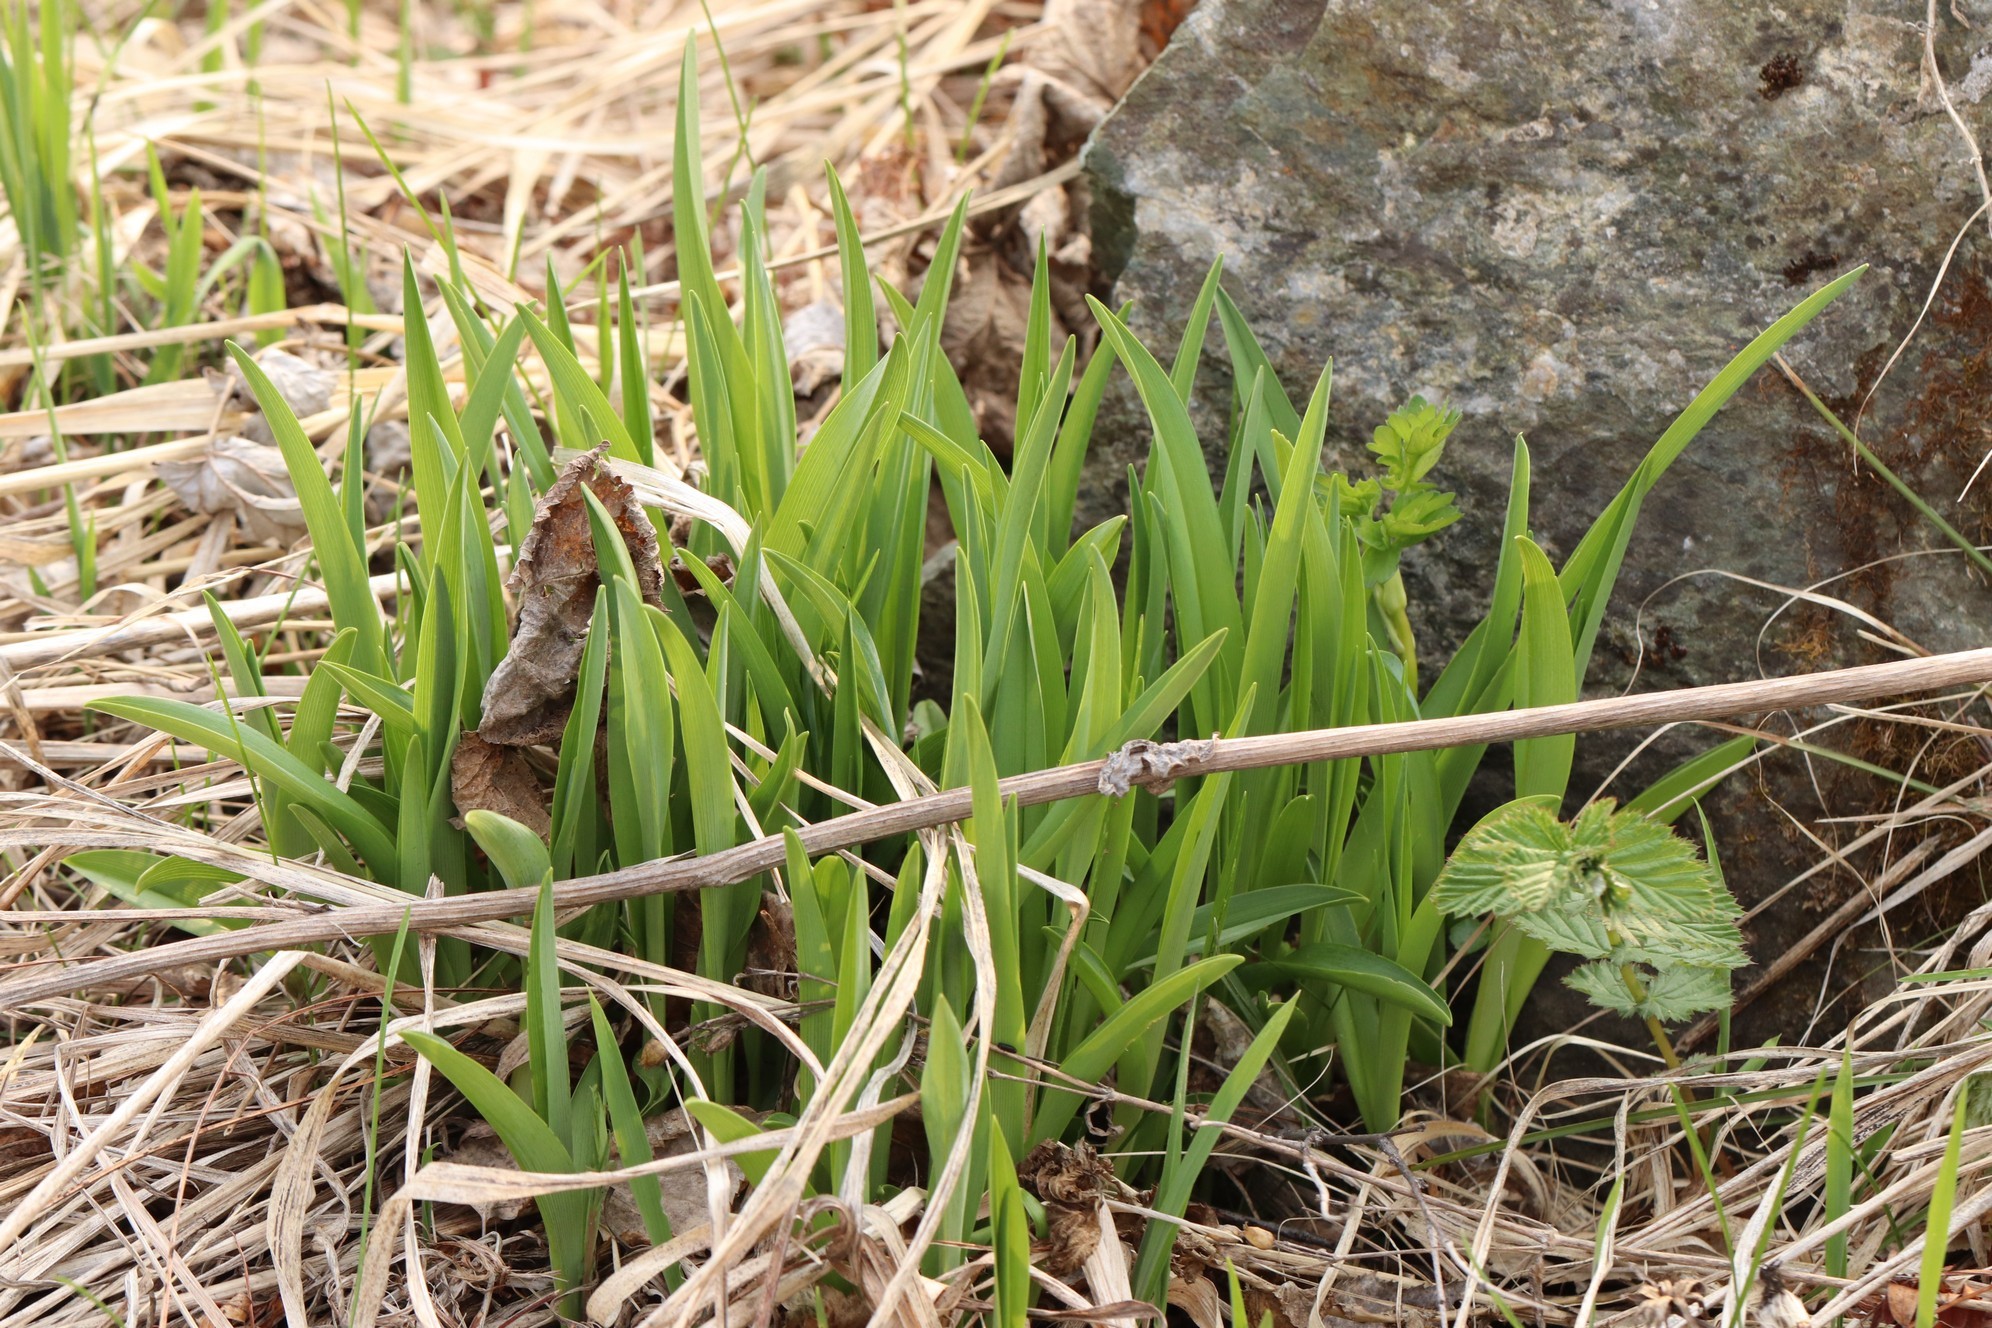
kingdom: Plantae
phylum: Tracheophyta
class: Liliopsida
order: Asparagales
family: Asphodelaceae
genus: Hemerocallis
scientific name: Hemerocallis minor
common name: Small daylily
